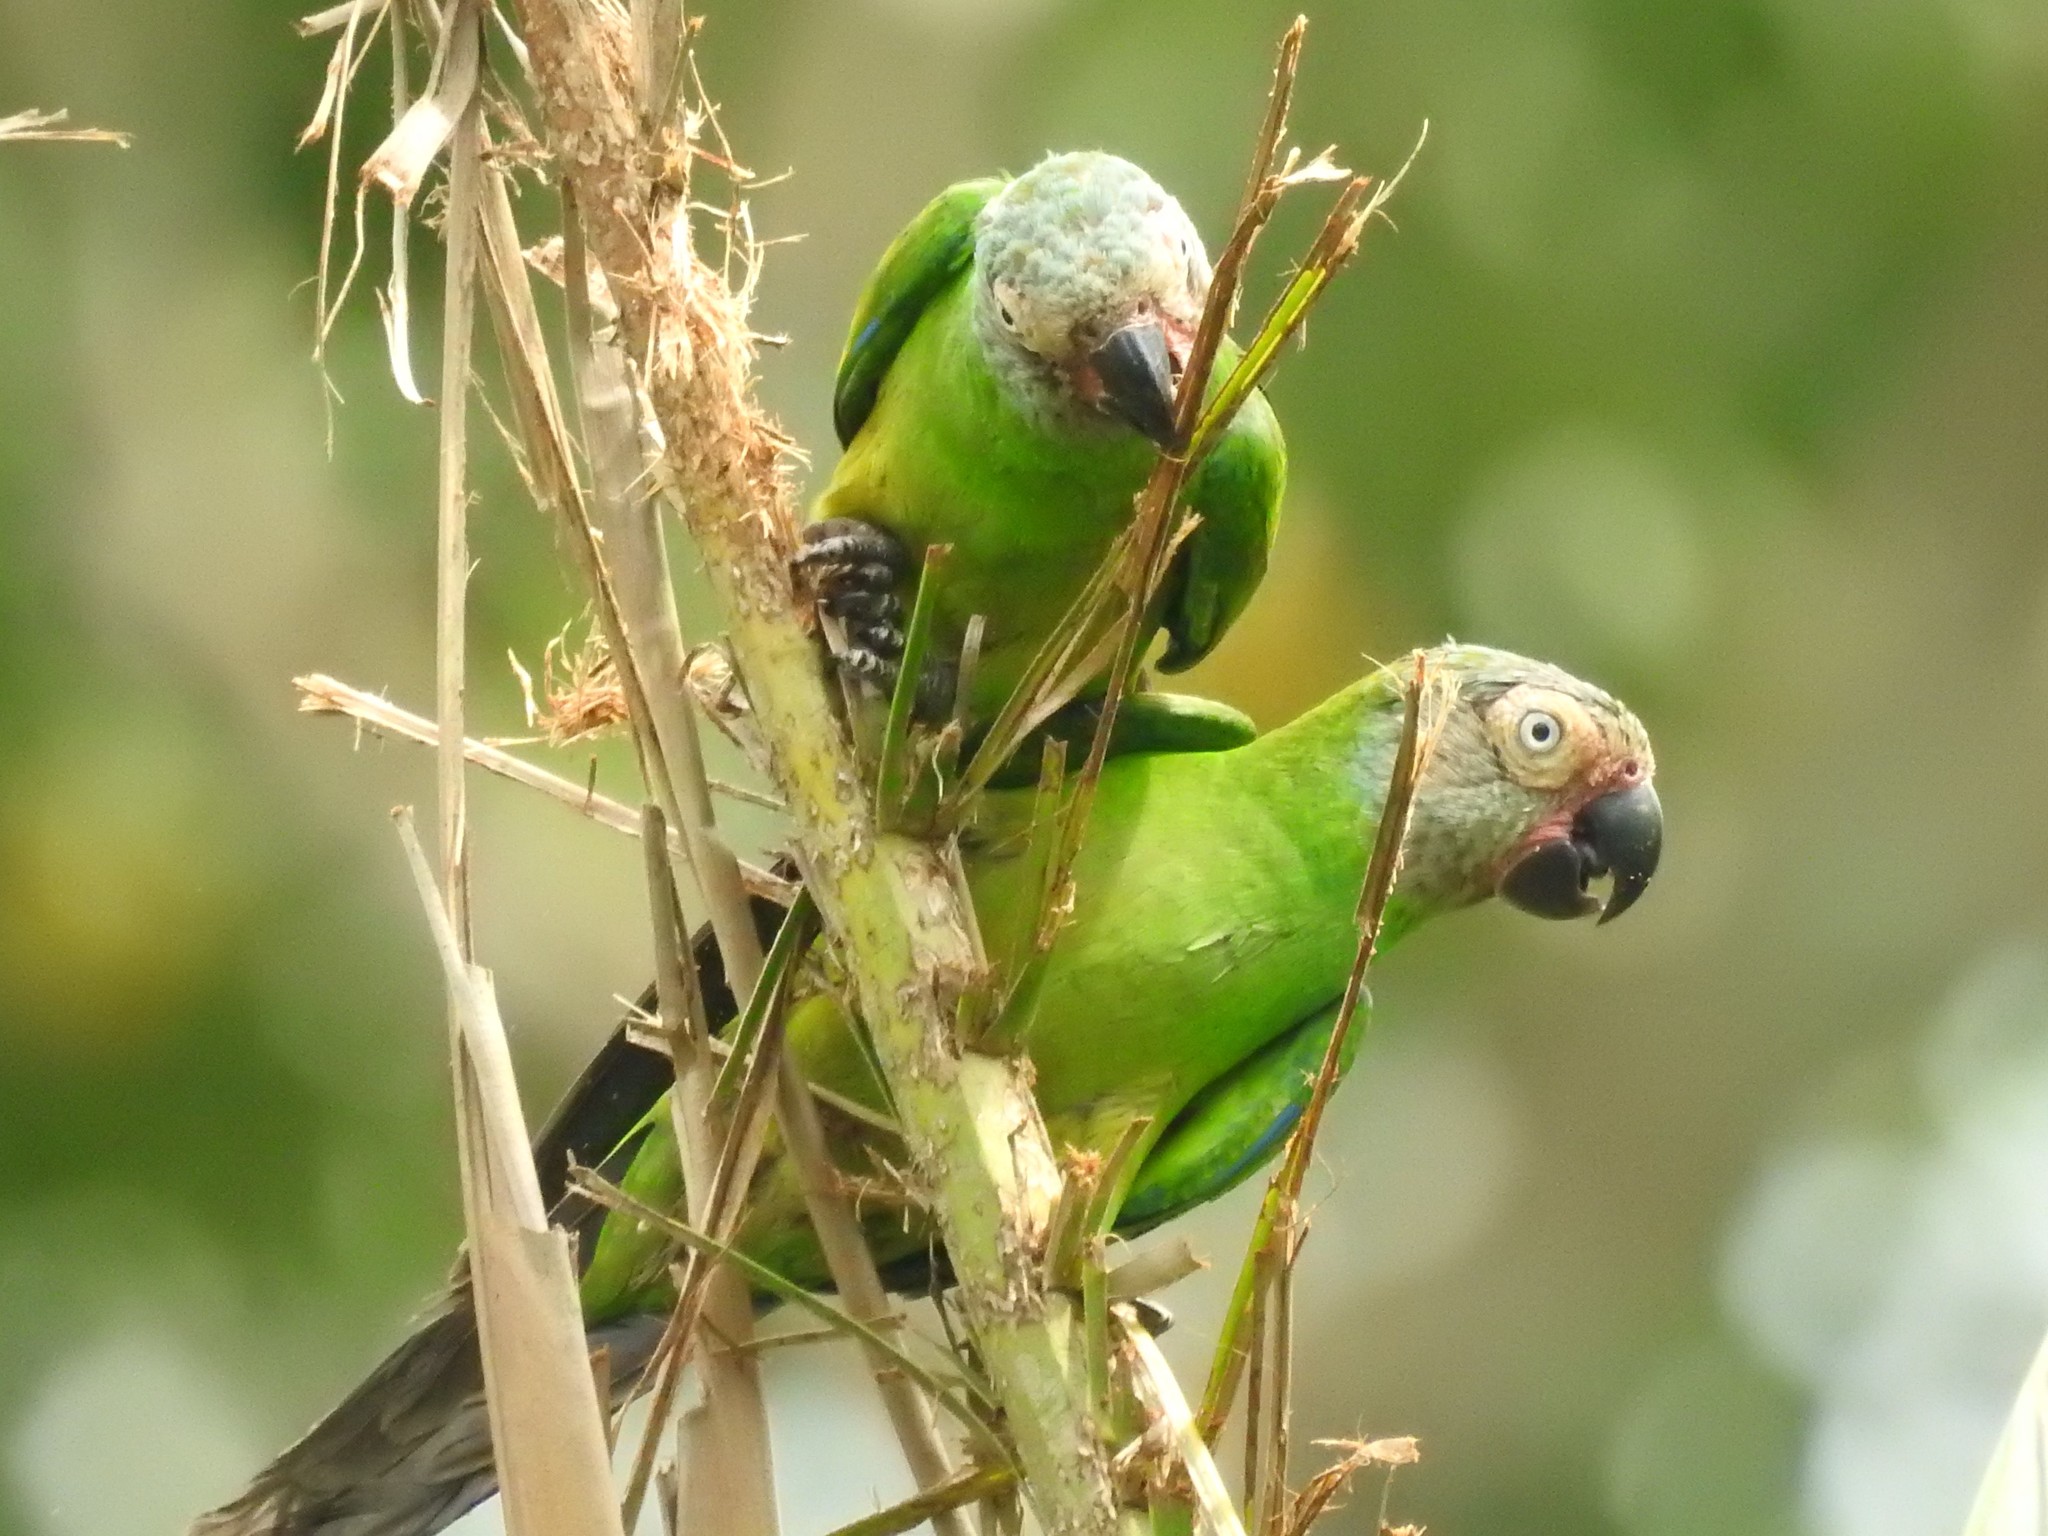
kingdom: Animalia
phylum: Chordata
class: Aves
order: Psittaciformes
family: Psittacidae
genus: Aratinga
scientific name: Aratinga weddellii
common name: Dusky-headed parakeet
